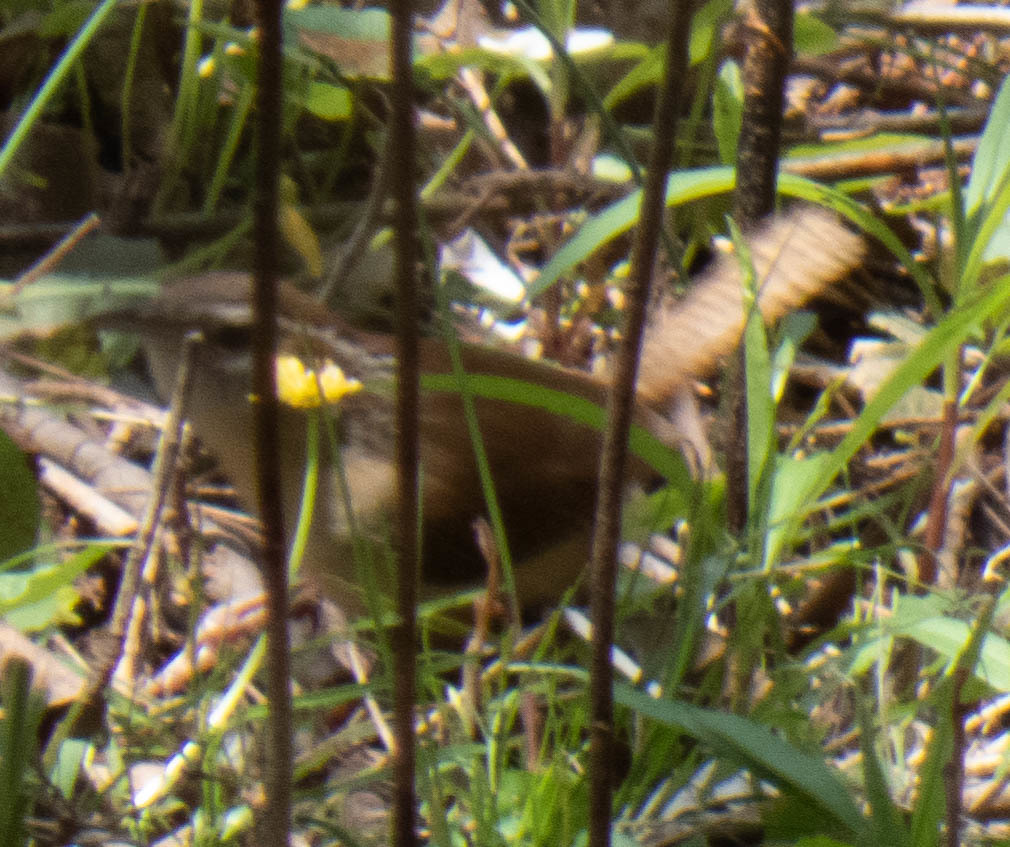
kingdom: Animalia
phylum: Chordata
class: Aves
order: Passeriformes
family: Troglodytidae
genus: Thryothorus
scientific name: Thryothorus ludovicianus
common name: Carolina wren
